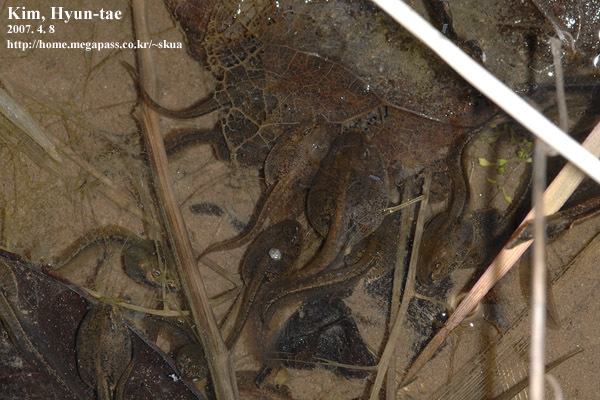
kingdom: Animalia
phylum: Chordata
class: Amphibia
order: Anura
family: Ranidae
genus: Rana
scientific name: Rana huanrenensis
